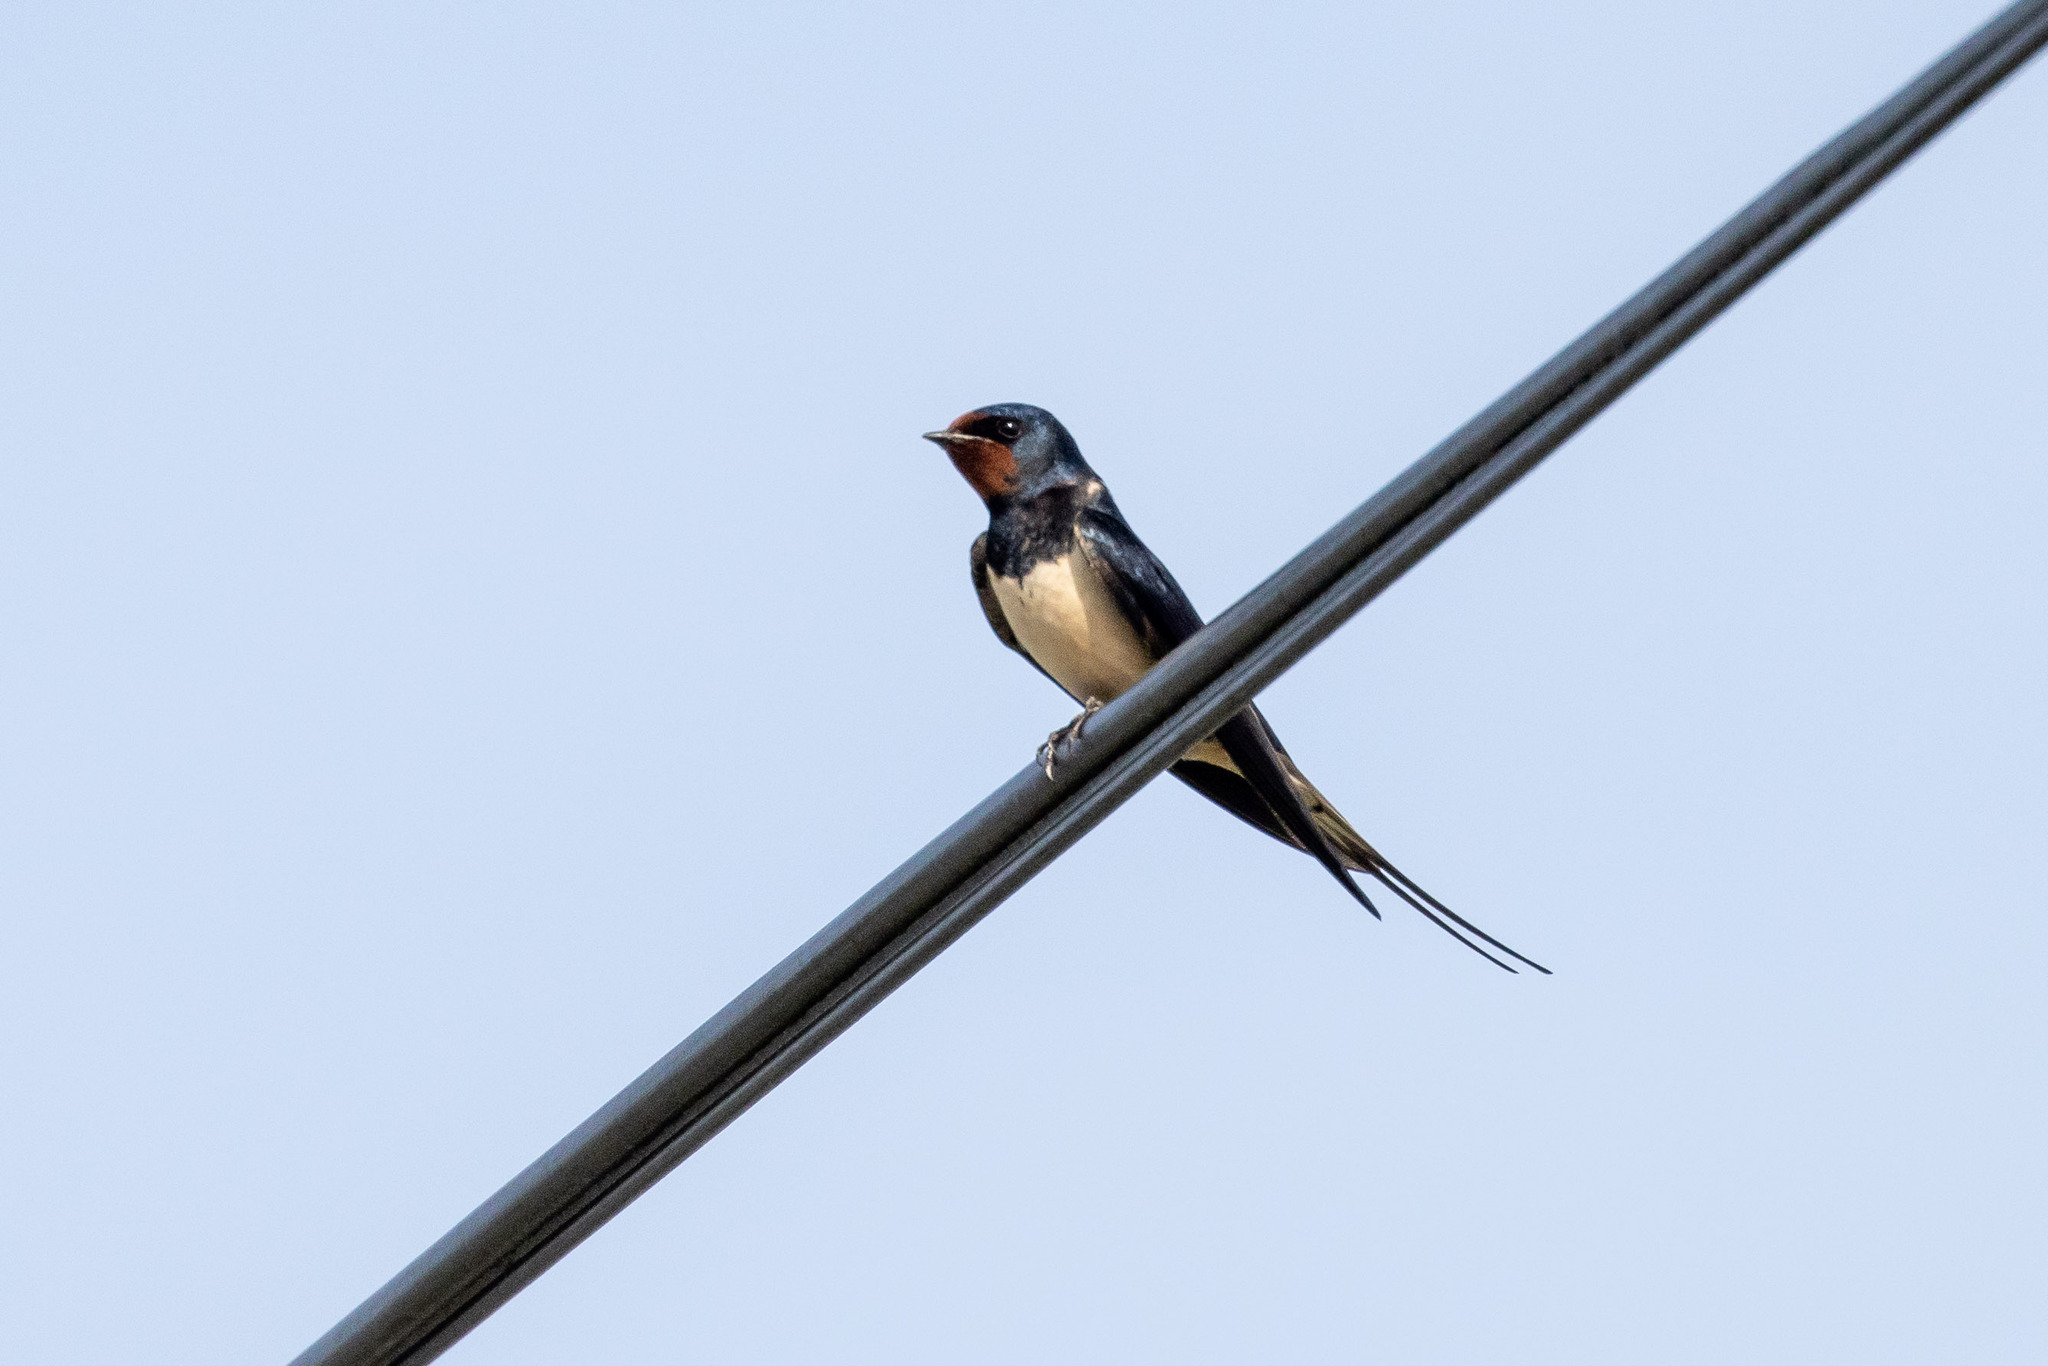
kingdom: Animalia
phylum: Chordata
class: Aves
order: Passeriformes
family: Hirundinidae
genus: Hirundo
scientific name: Hirundo rustica
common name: Barn swallow
